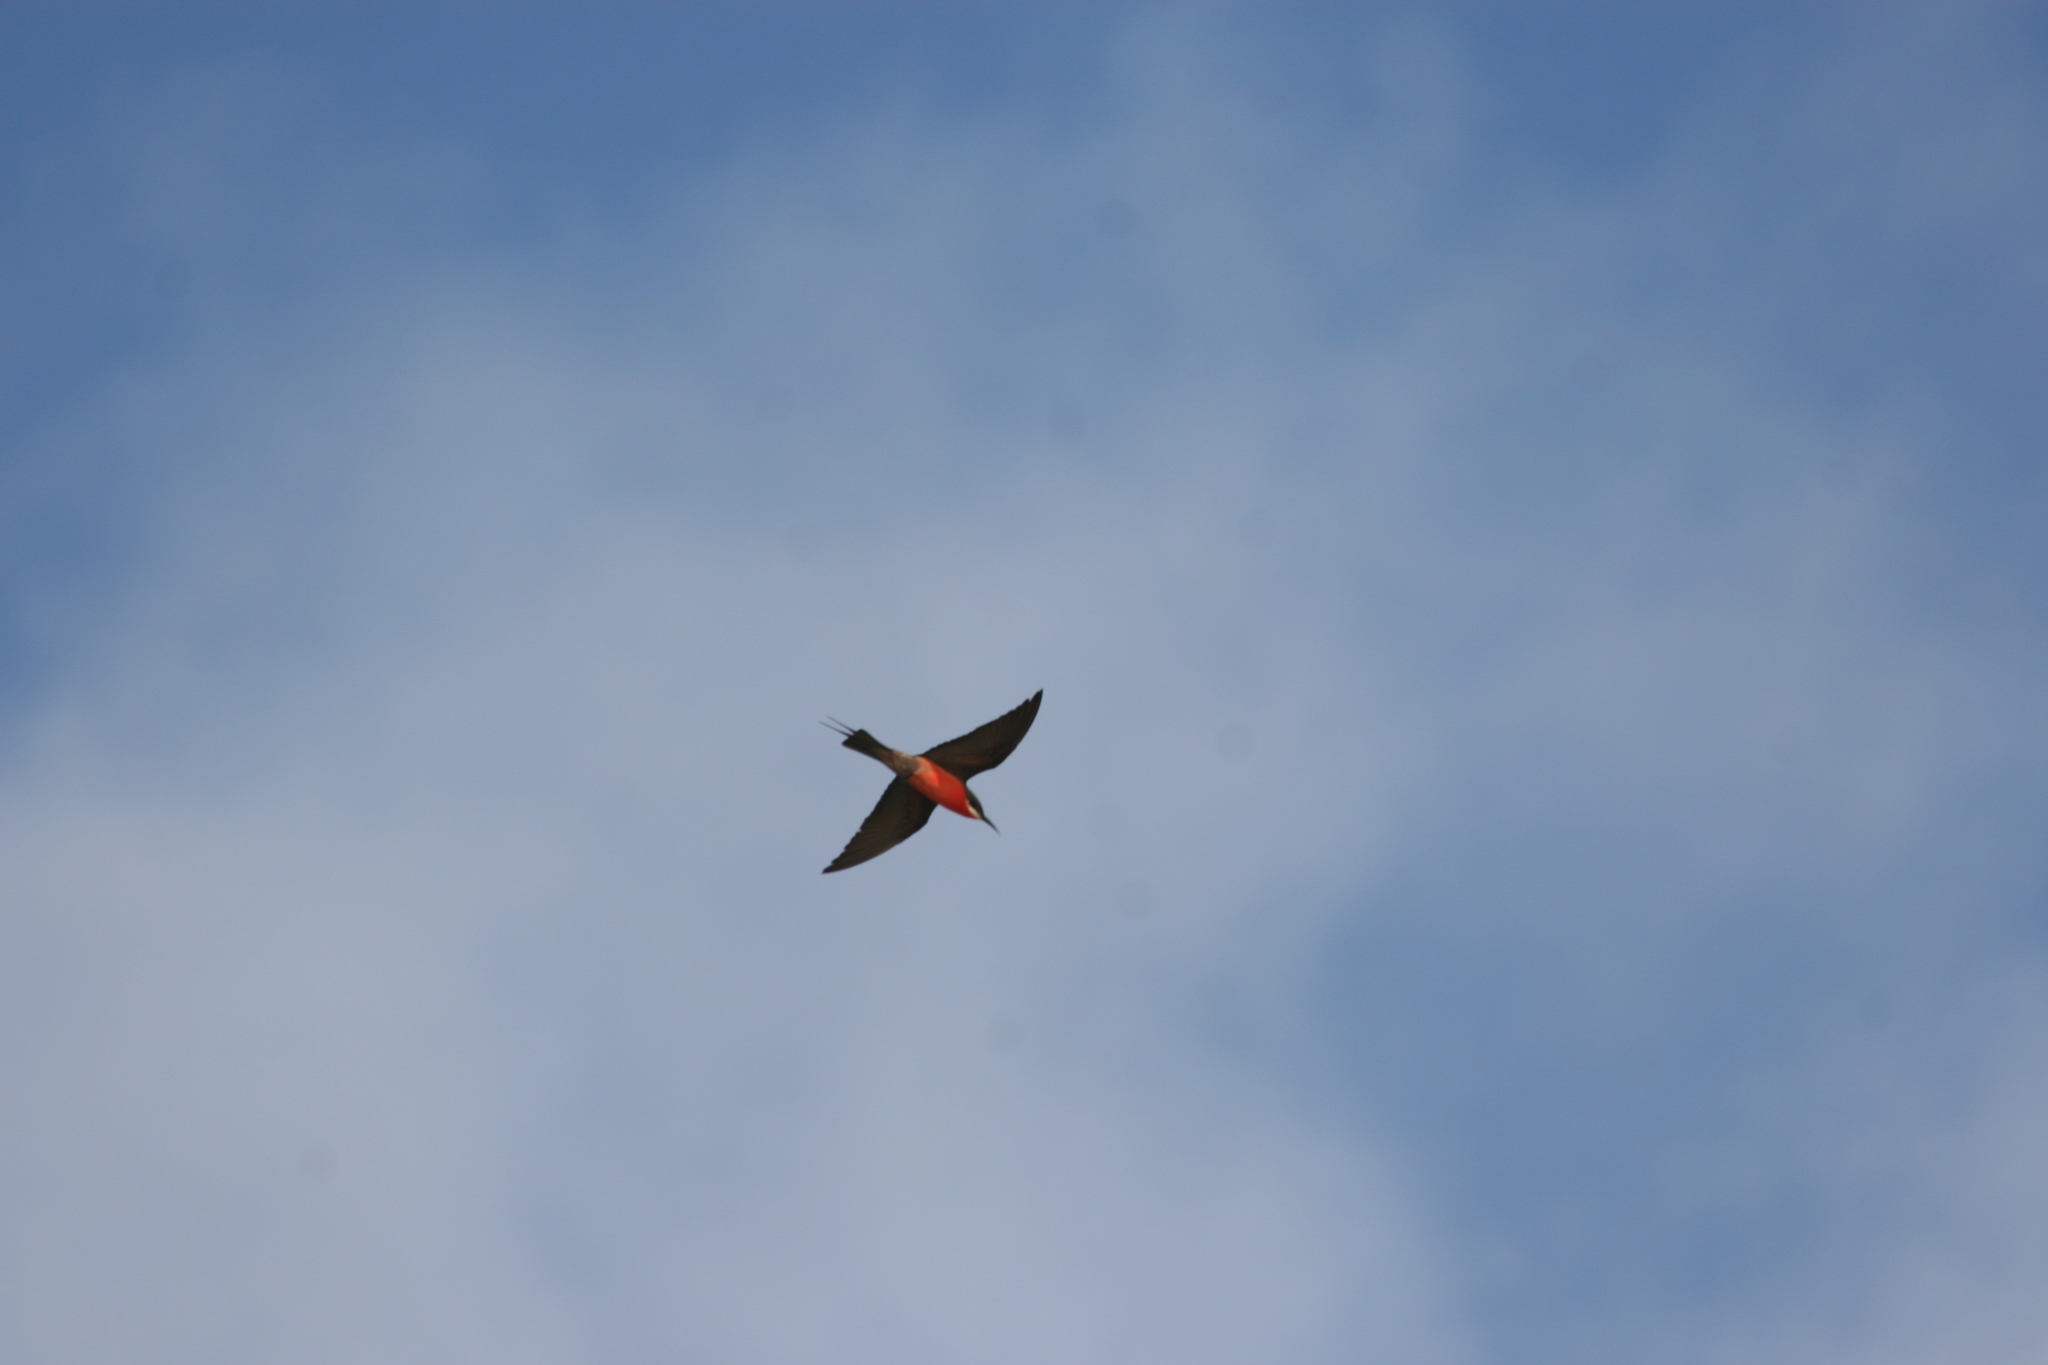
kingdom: Animalia
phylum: Chordata
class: Aves
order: Coraciiformes
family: Meropidae
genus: Merops
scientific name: Merops malimbicus
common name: Rosy bee-eater
